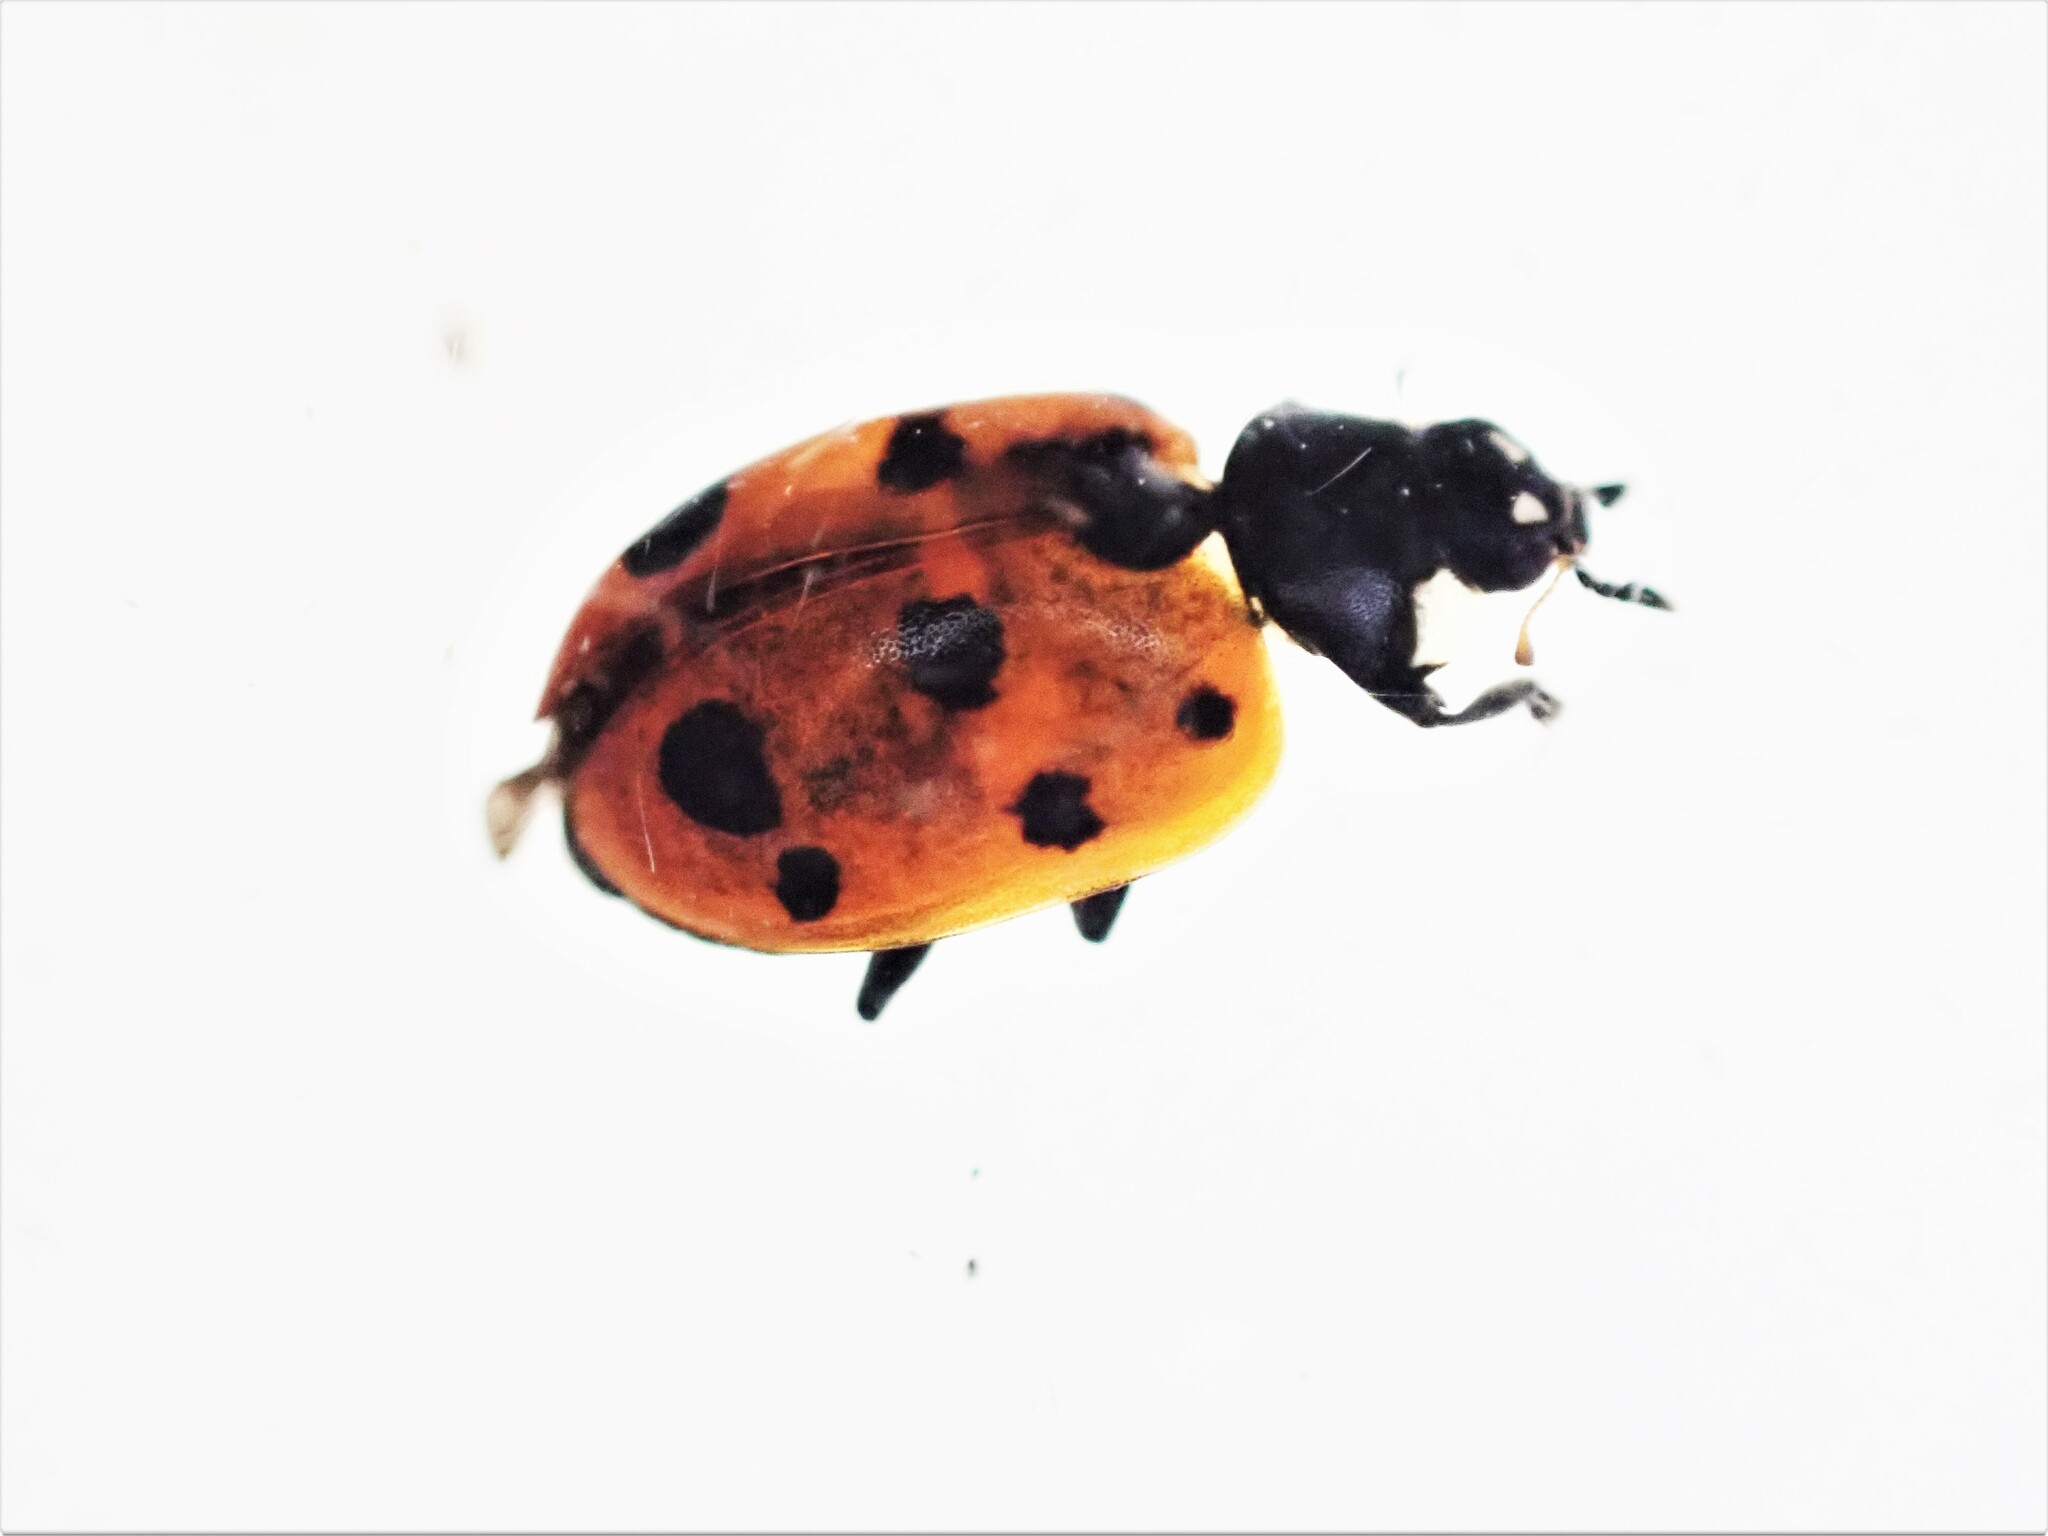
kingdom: Animalia
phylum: Arthropoda
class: Insecta
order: Coleoptera
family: Coccinellidae
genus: Coccinella
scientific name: Coccinella undecimpunctata
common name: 11-spot ladybird
